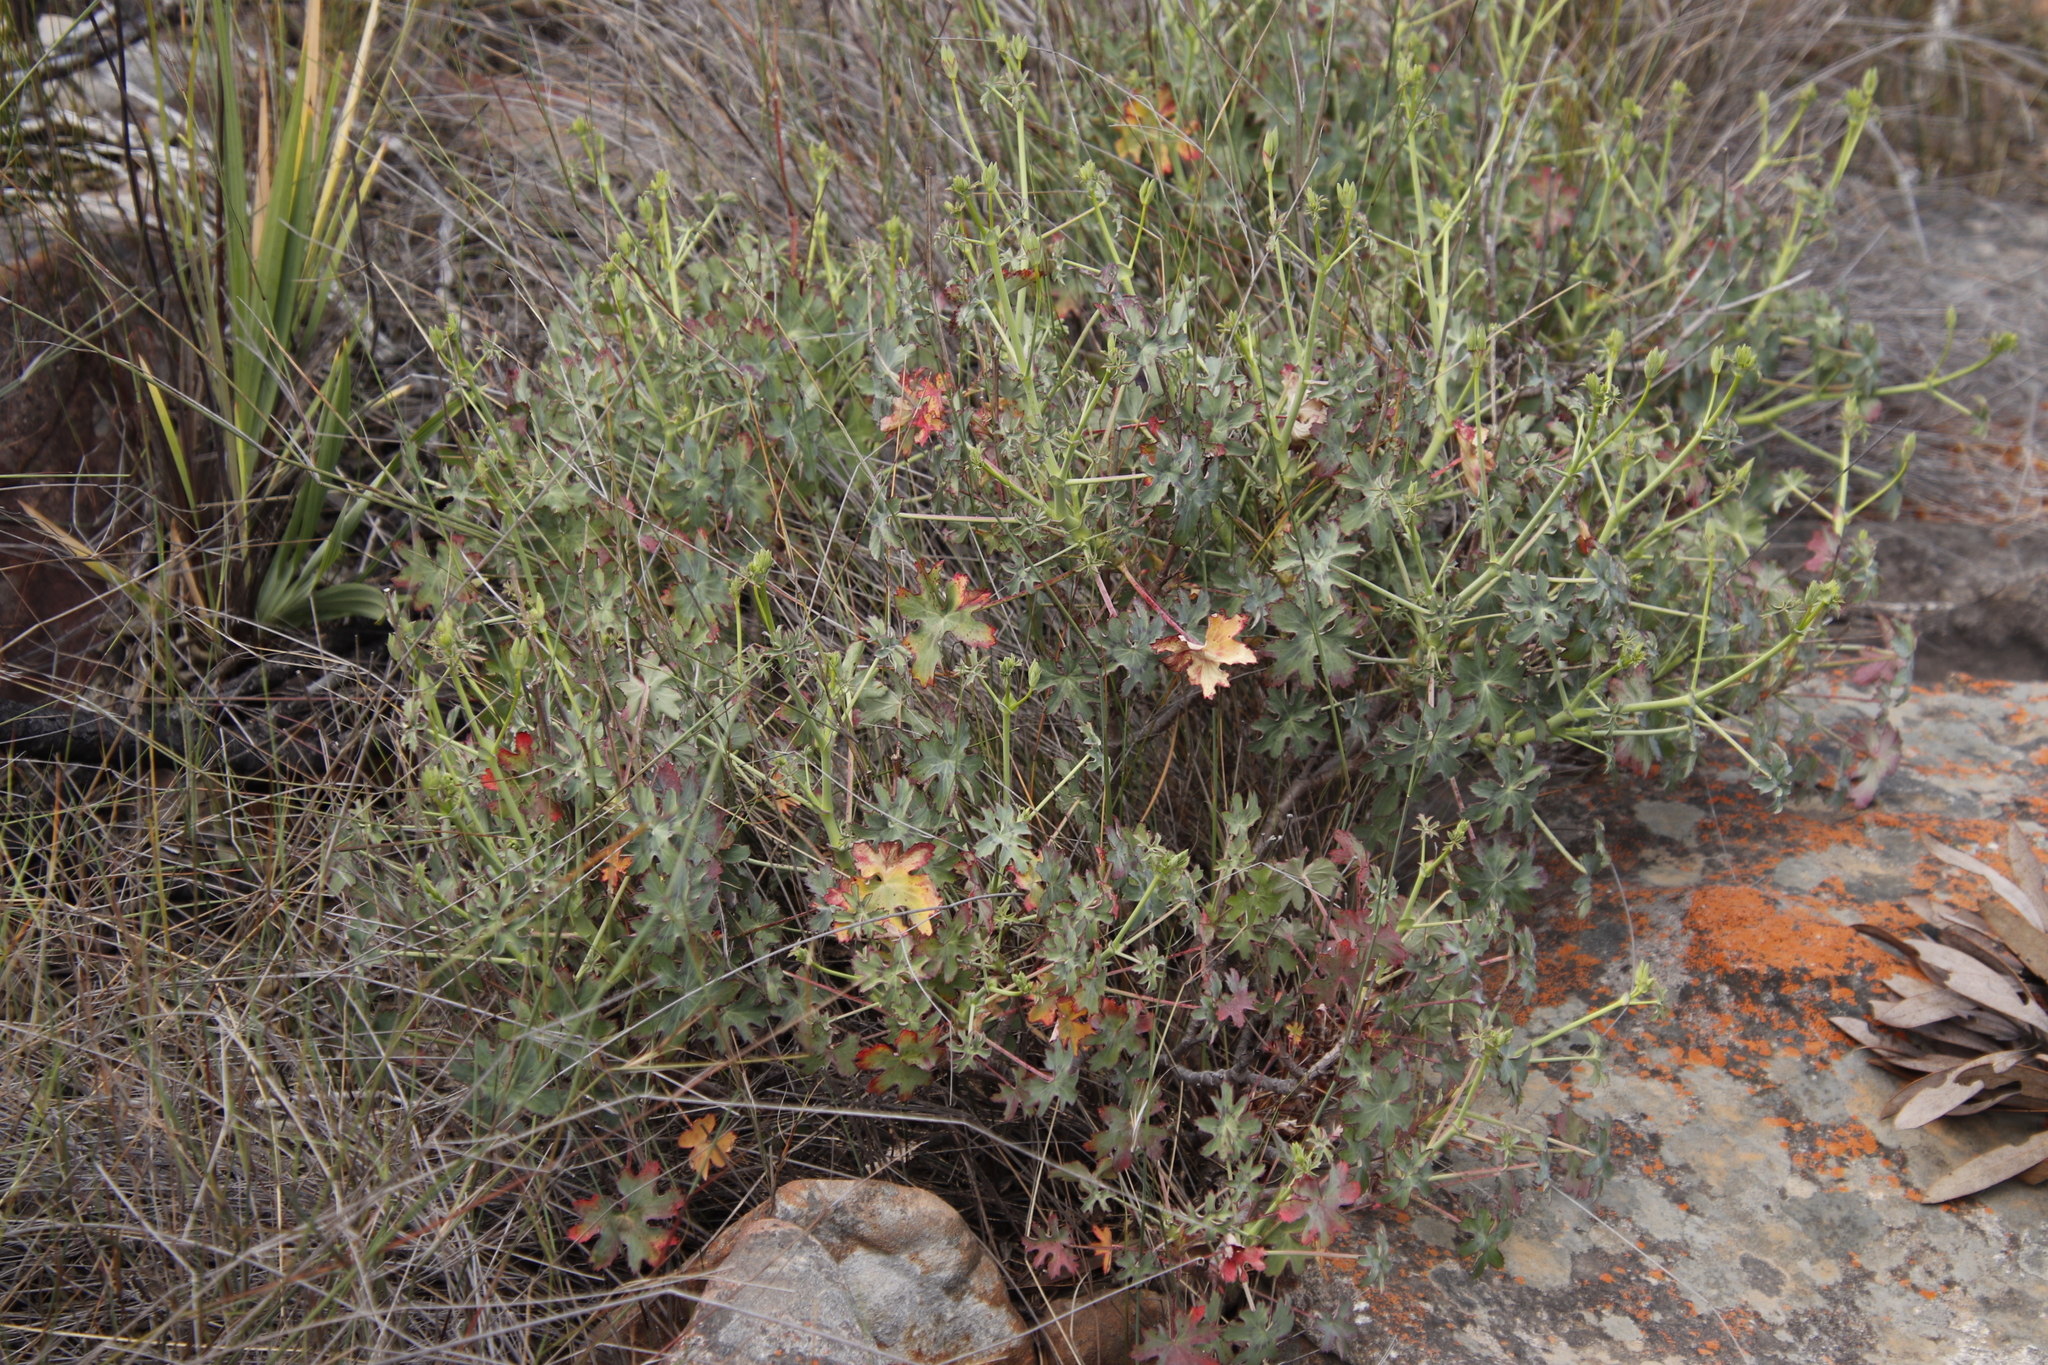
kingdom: Plantae
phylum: Tracheophyta
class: Magnoliopsida
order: Geraniales
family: Geraniaceae
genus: Pelargonium
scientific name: Pelargonium grandiflorum
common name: Large-flower pelargonium
